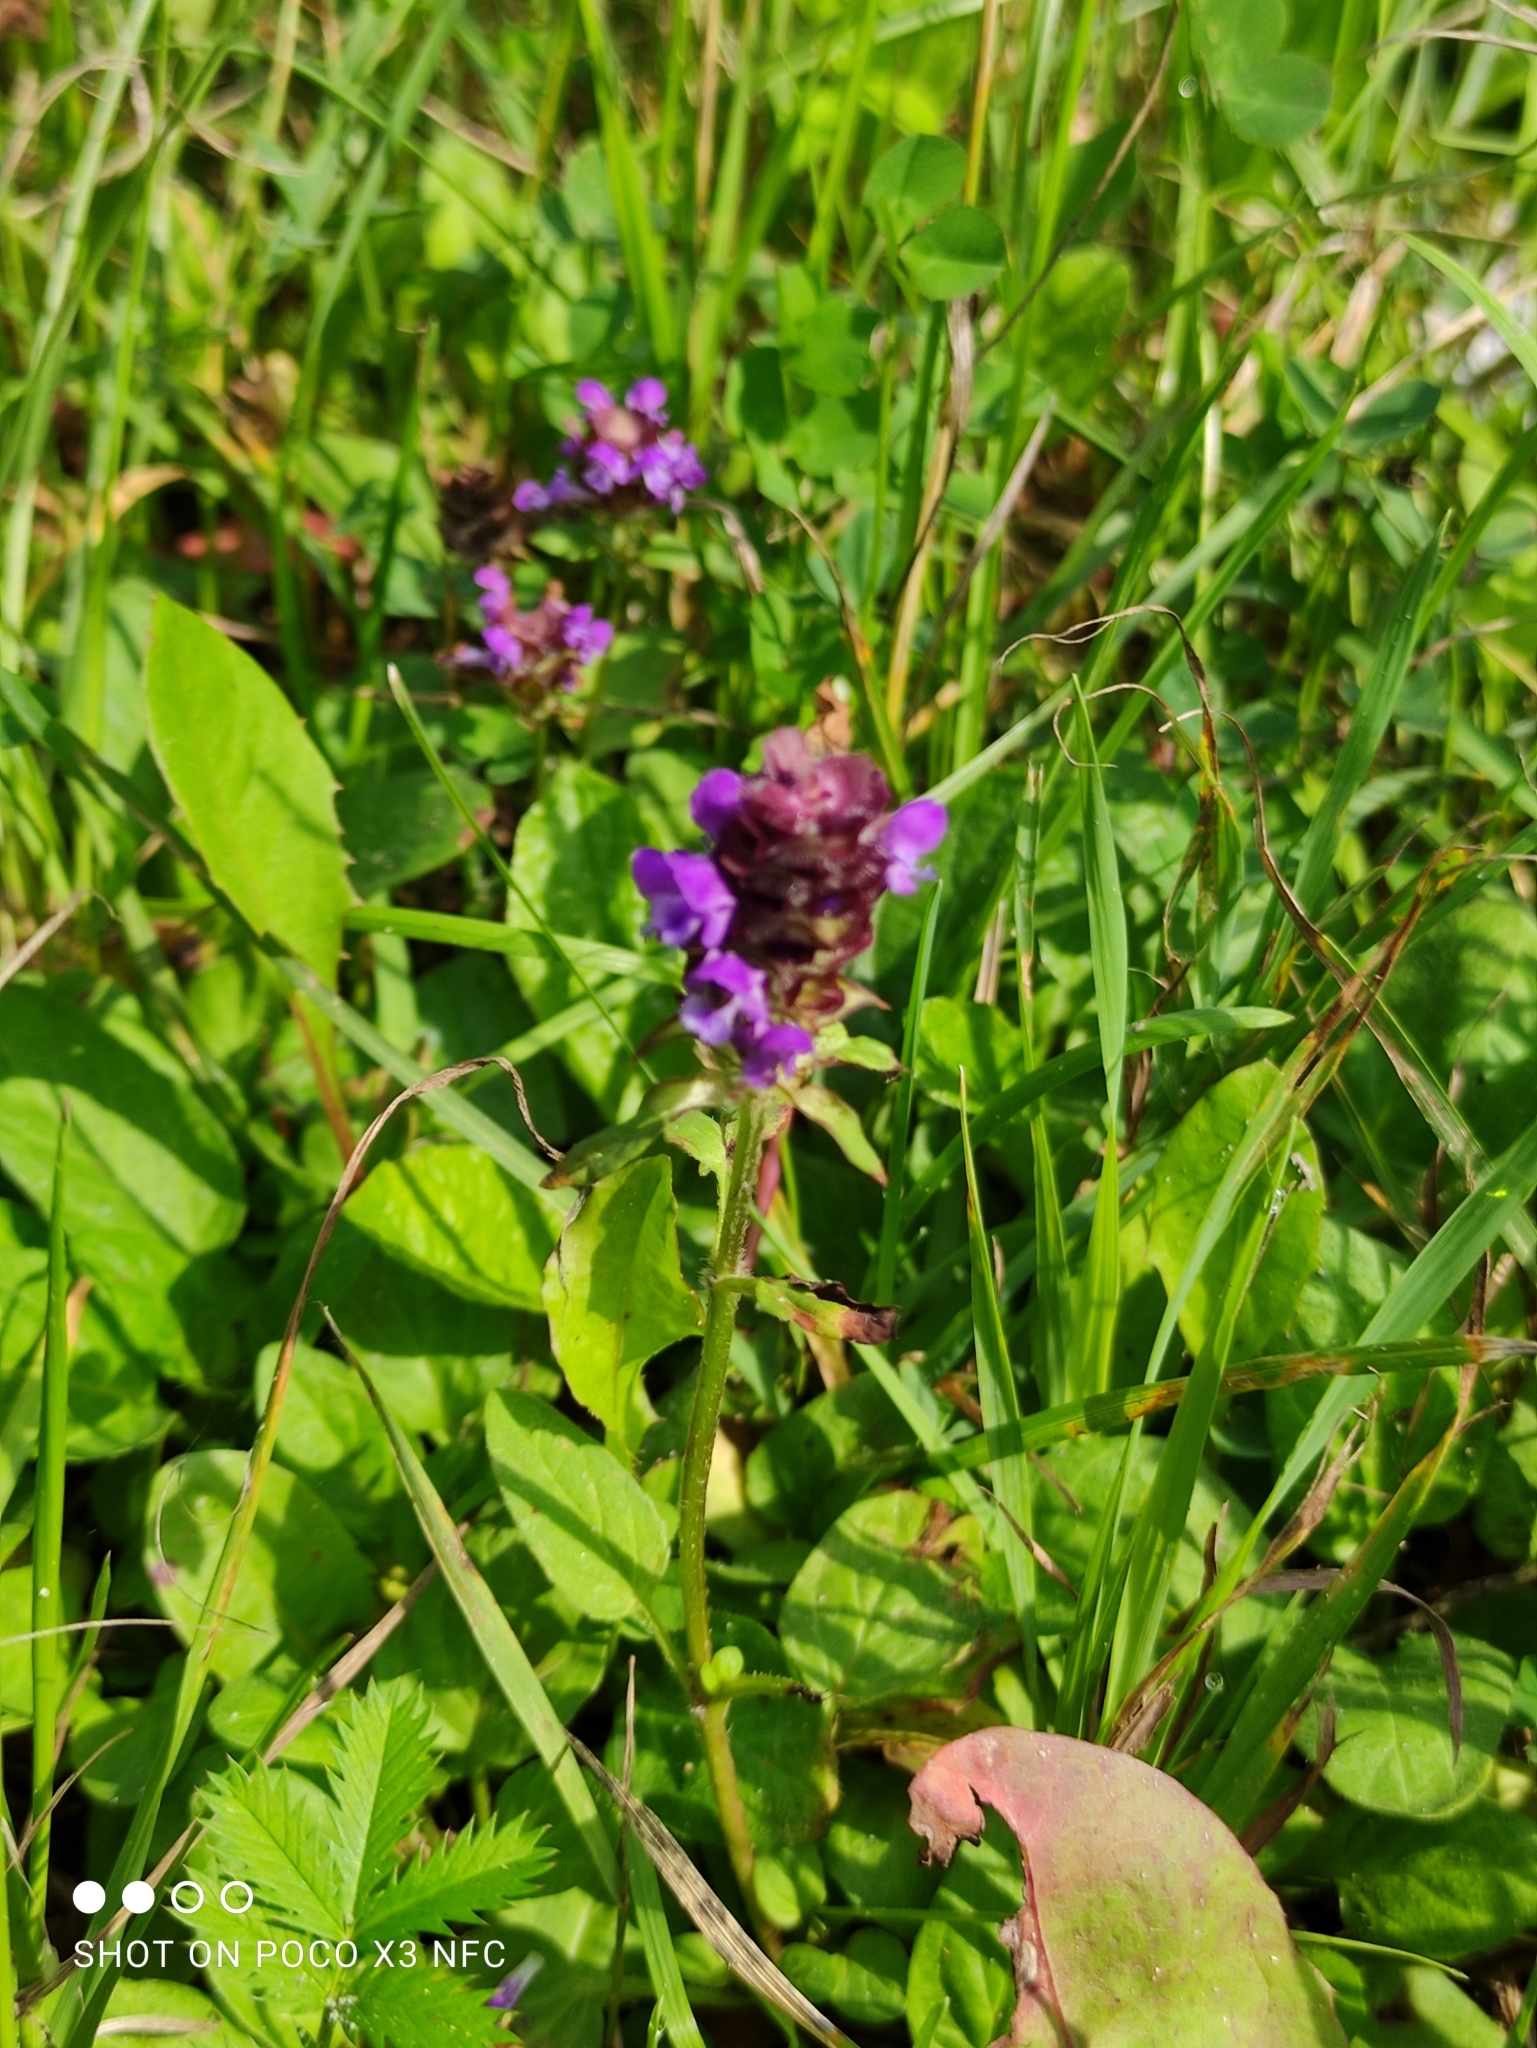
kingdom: Plantae
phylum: Tracheophyta
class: Magnoliopsida
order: Lamiales
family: Lamiaceae
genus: Prunella
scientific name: Prunella vulgaris
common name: Heal-all
